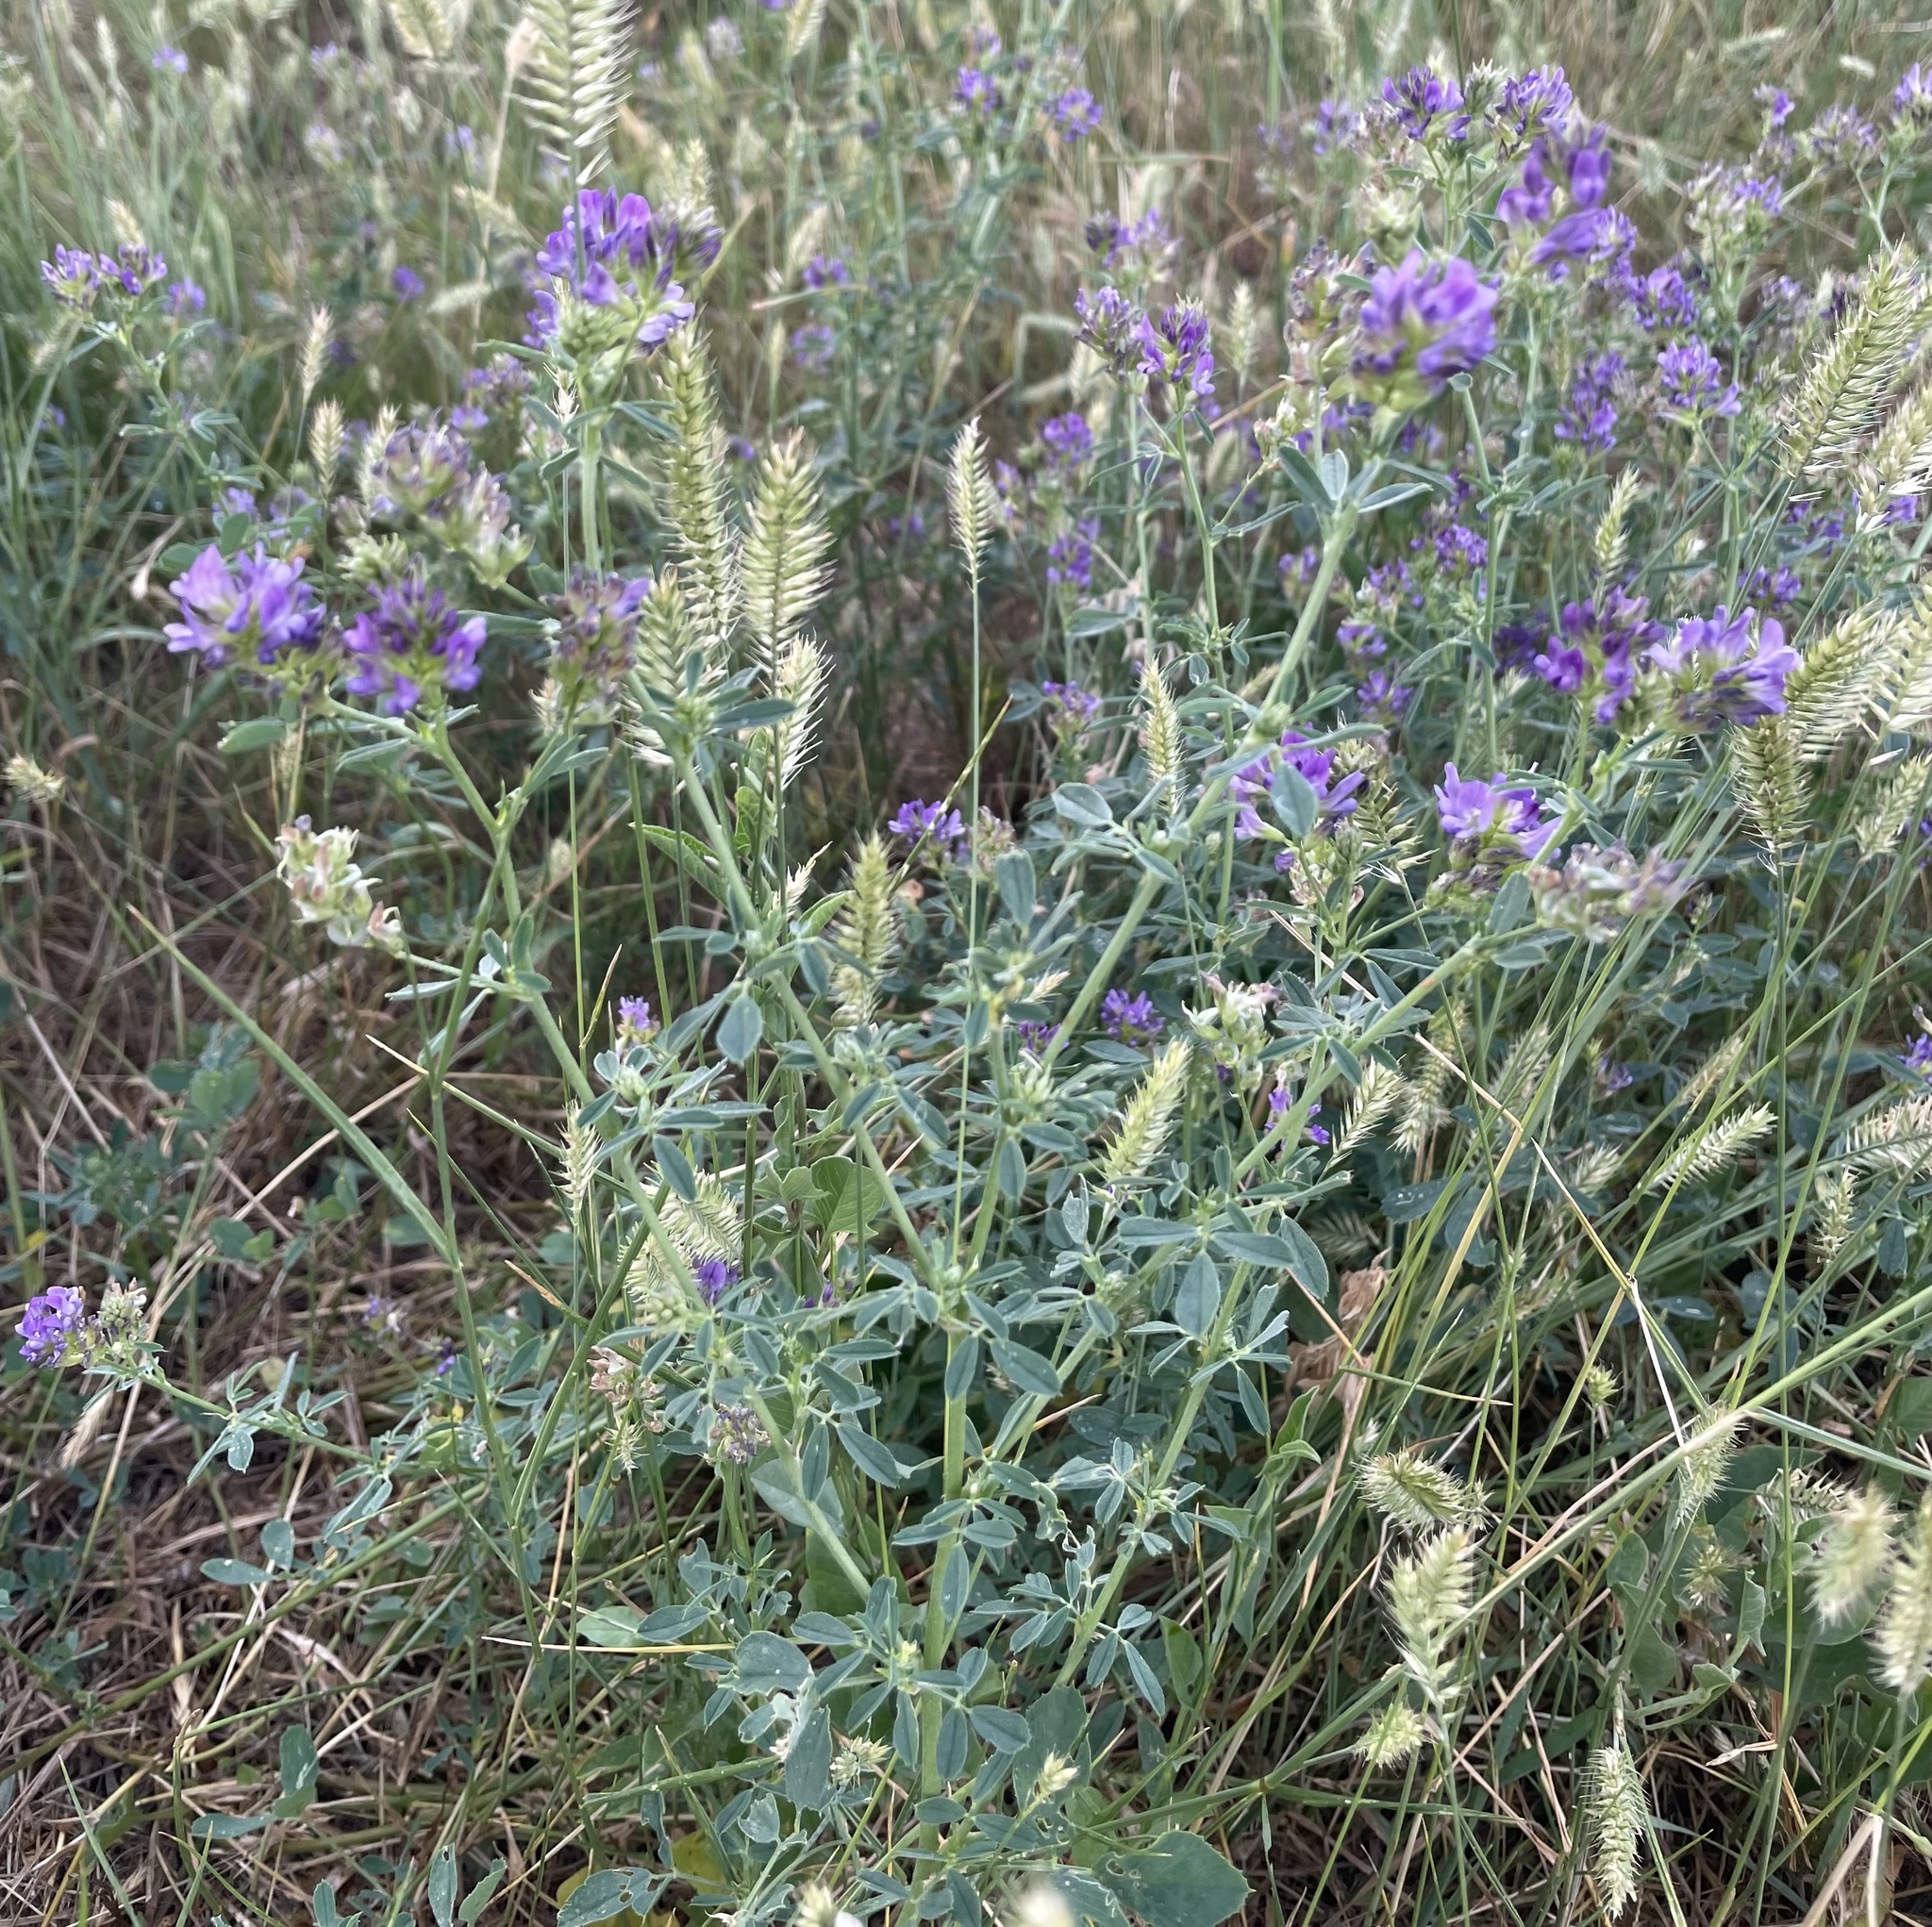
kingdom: Plantae
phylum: Tracheophyta
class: Magnoliopsida
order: Fabales
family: Fabaceae
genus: Medicago
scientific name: Medicago sativa
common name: Alfalfa
